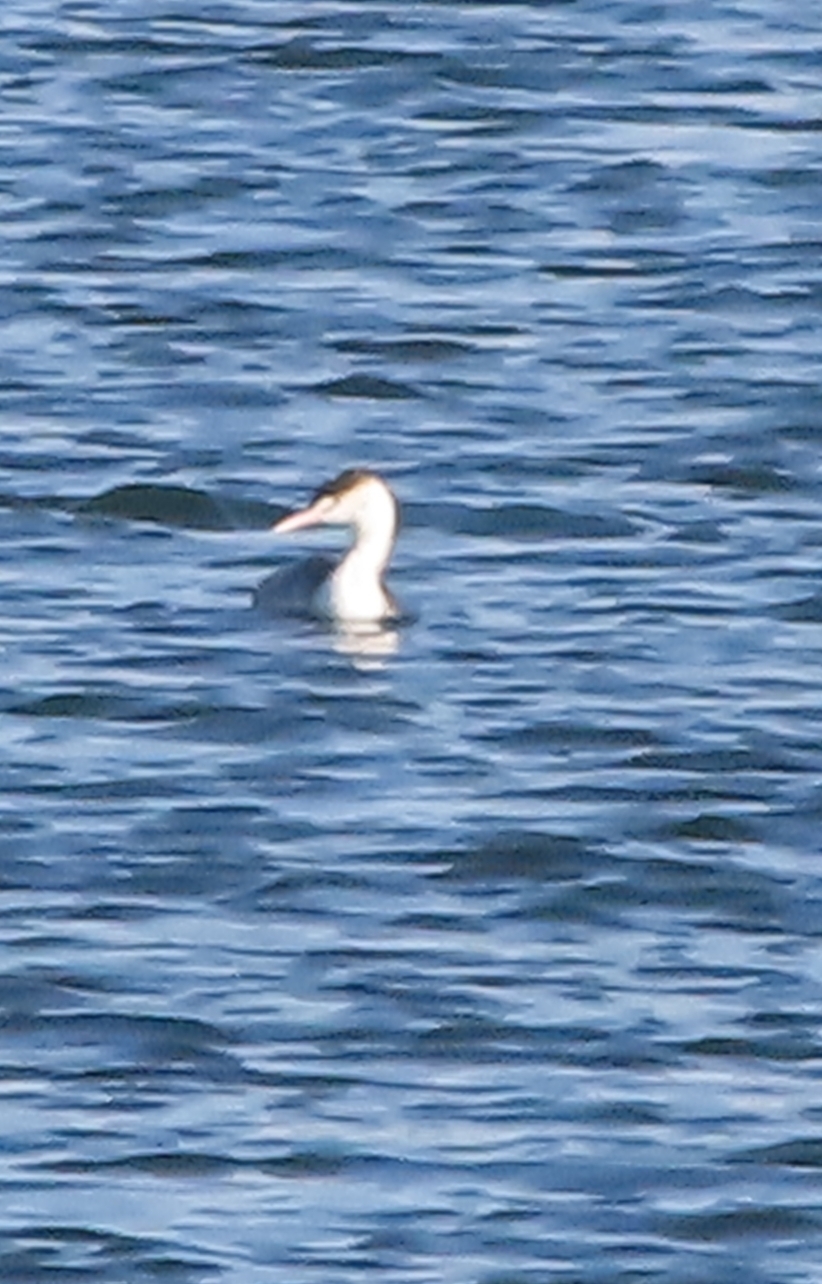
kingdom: Animalia
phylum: Chordata
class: Aves
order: Podicipediformes
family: Podicipedidae
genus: Podiceps
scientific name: Podiceps cristatus
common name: Great crested grebe
